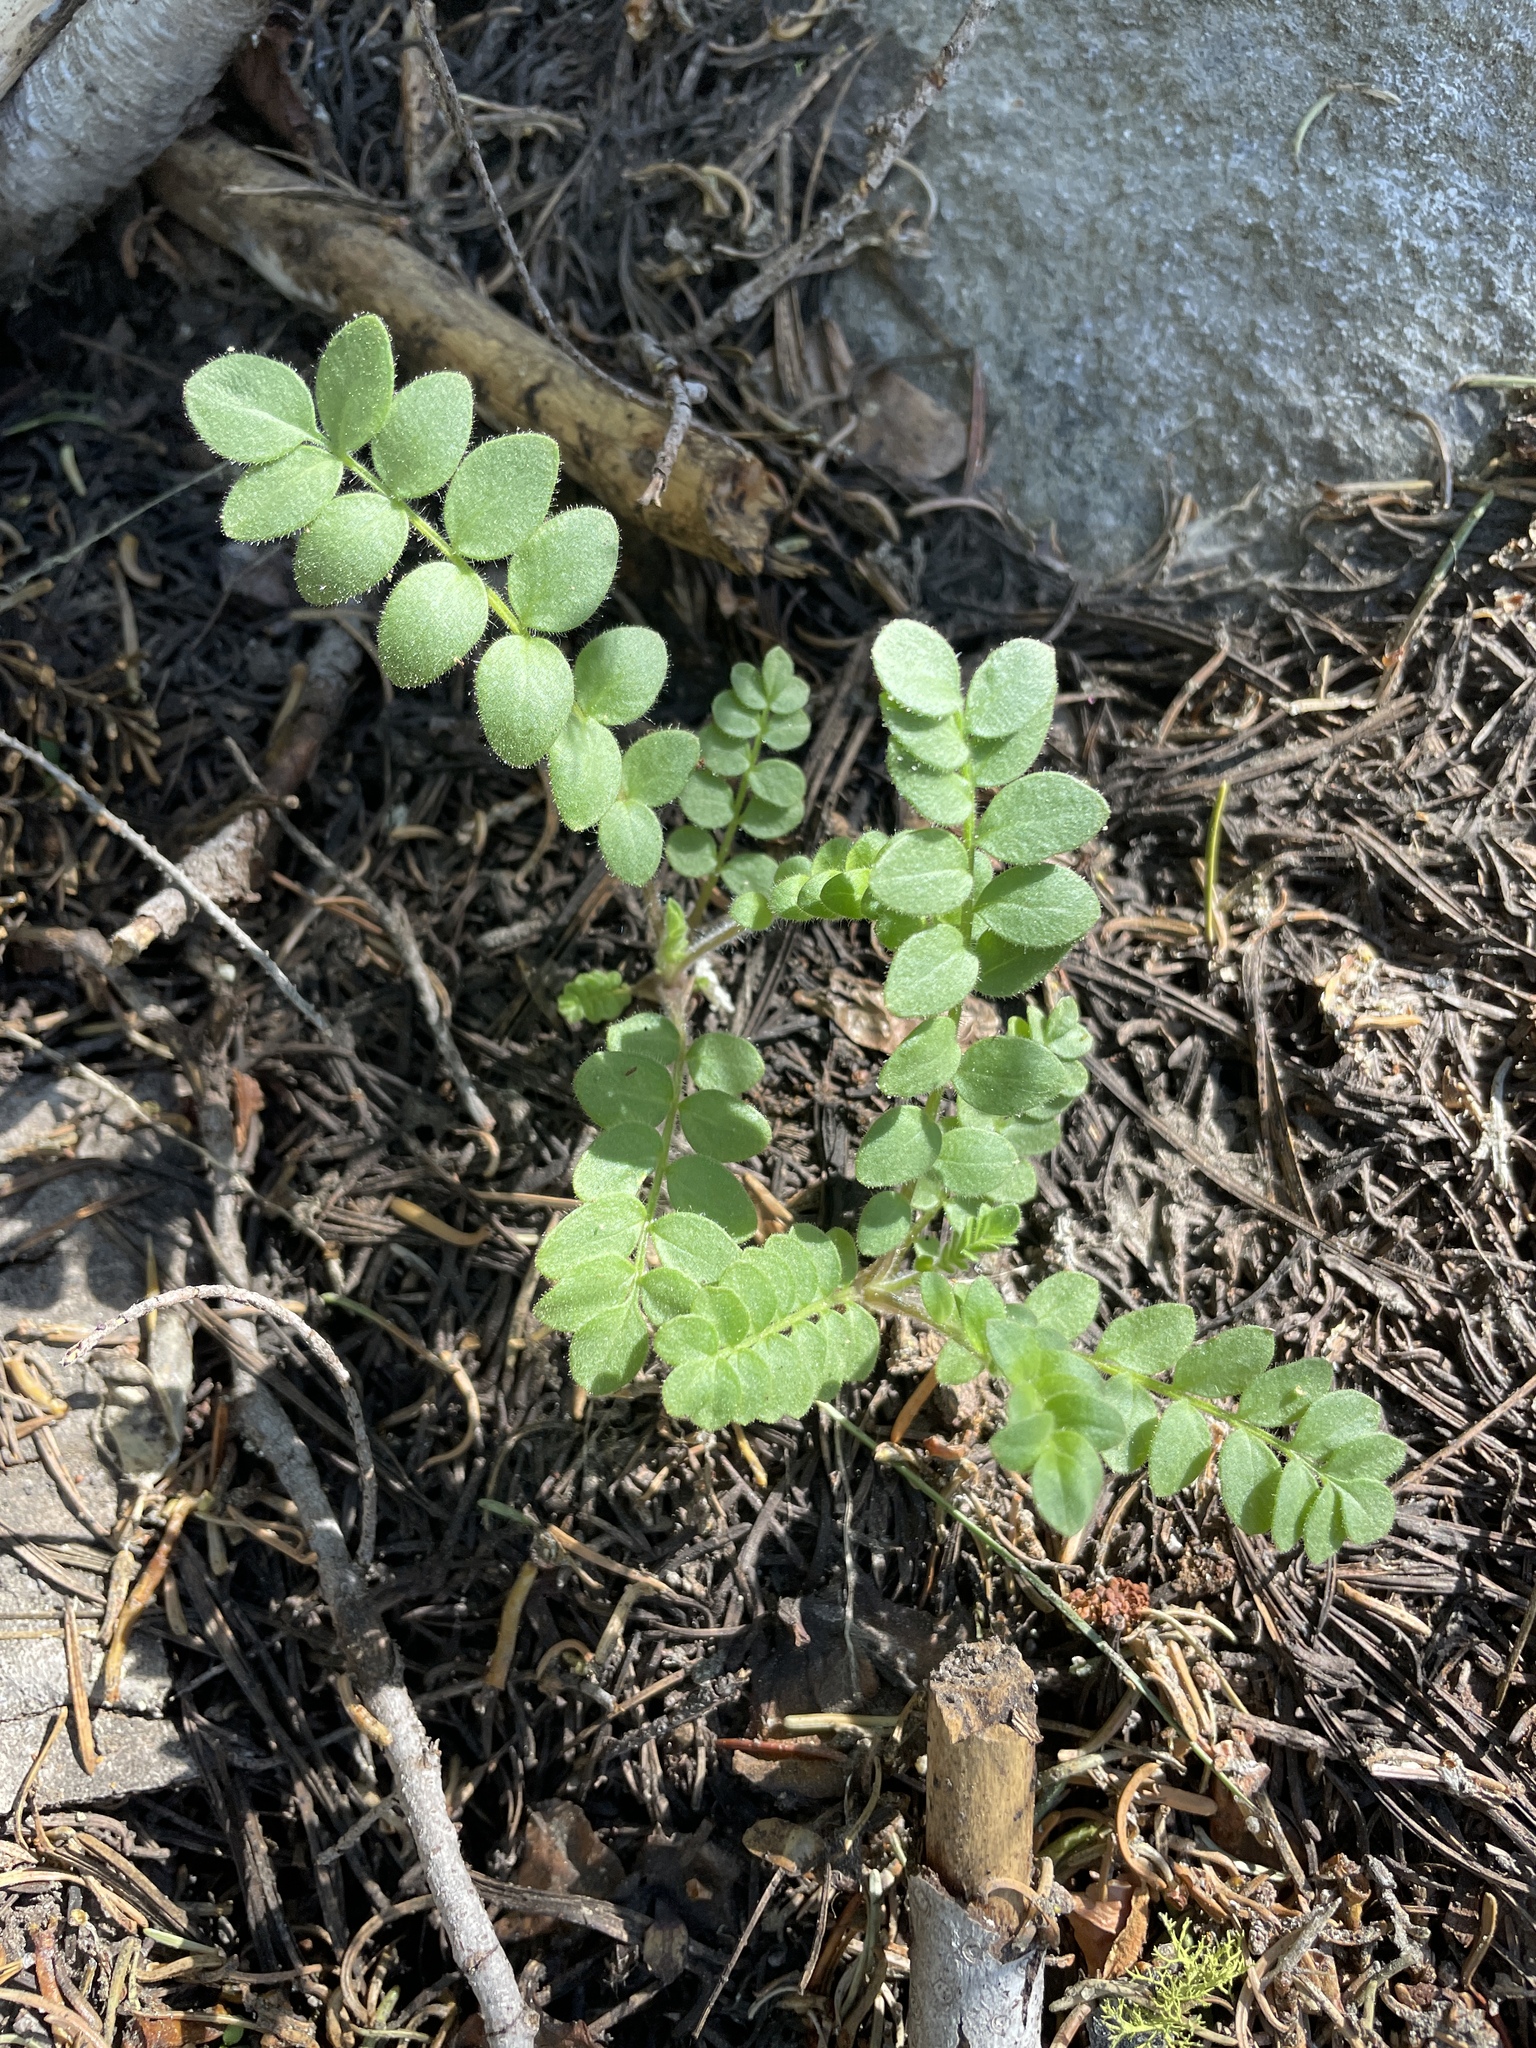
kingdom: Plantae
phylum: Tracheophyta
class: Magnoliopsida
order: Ericales
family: Polemoniaceae
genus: Polemonium
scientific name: Polemonium californicum
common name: California jacob's ladder
